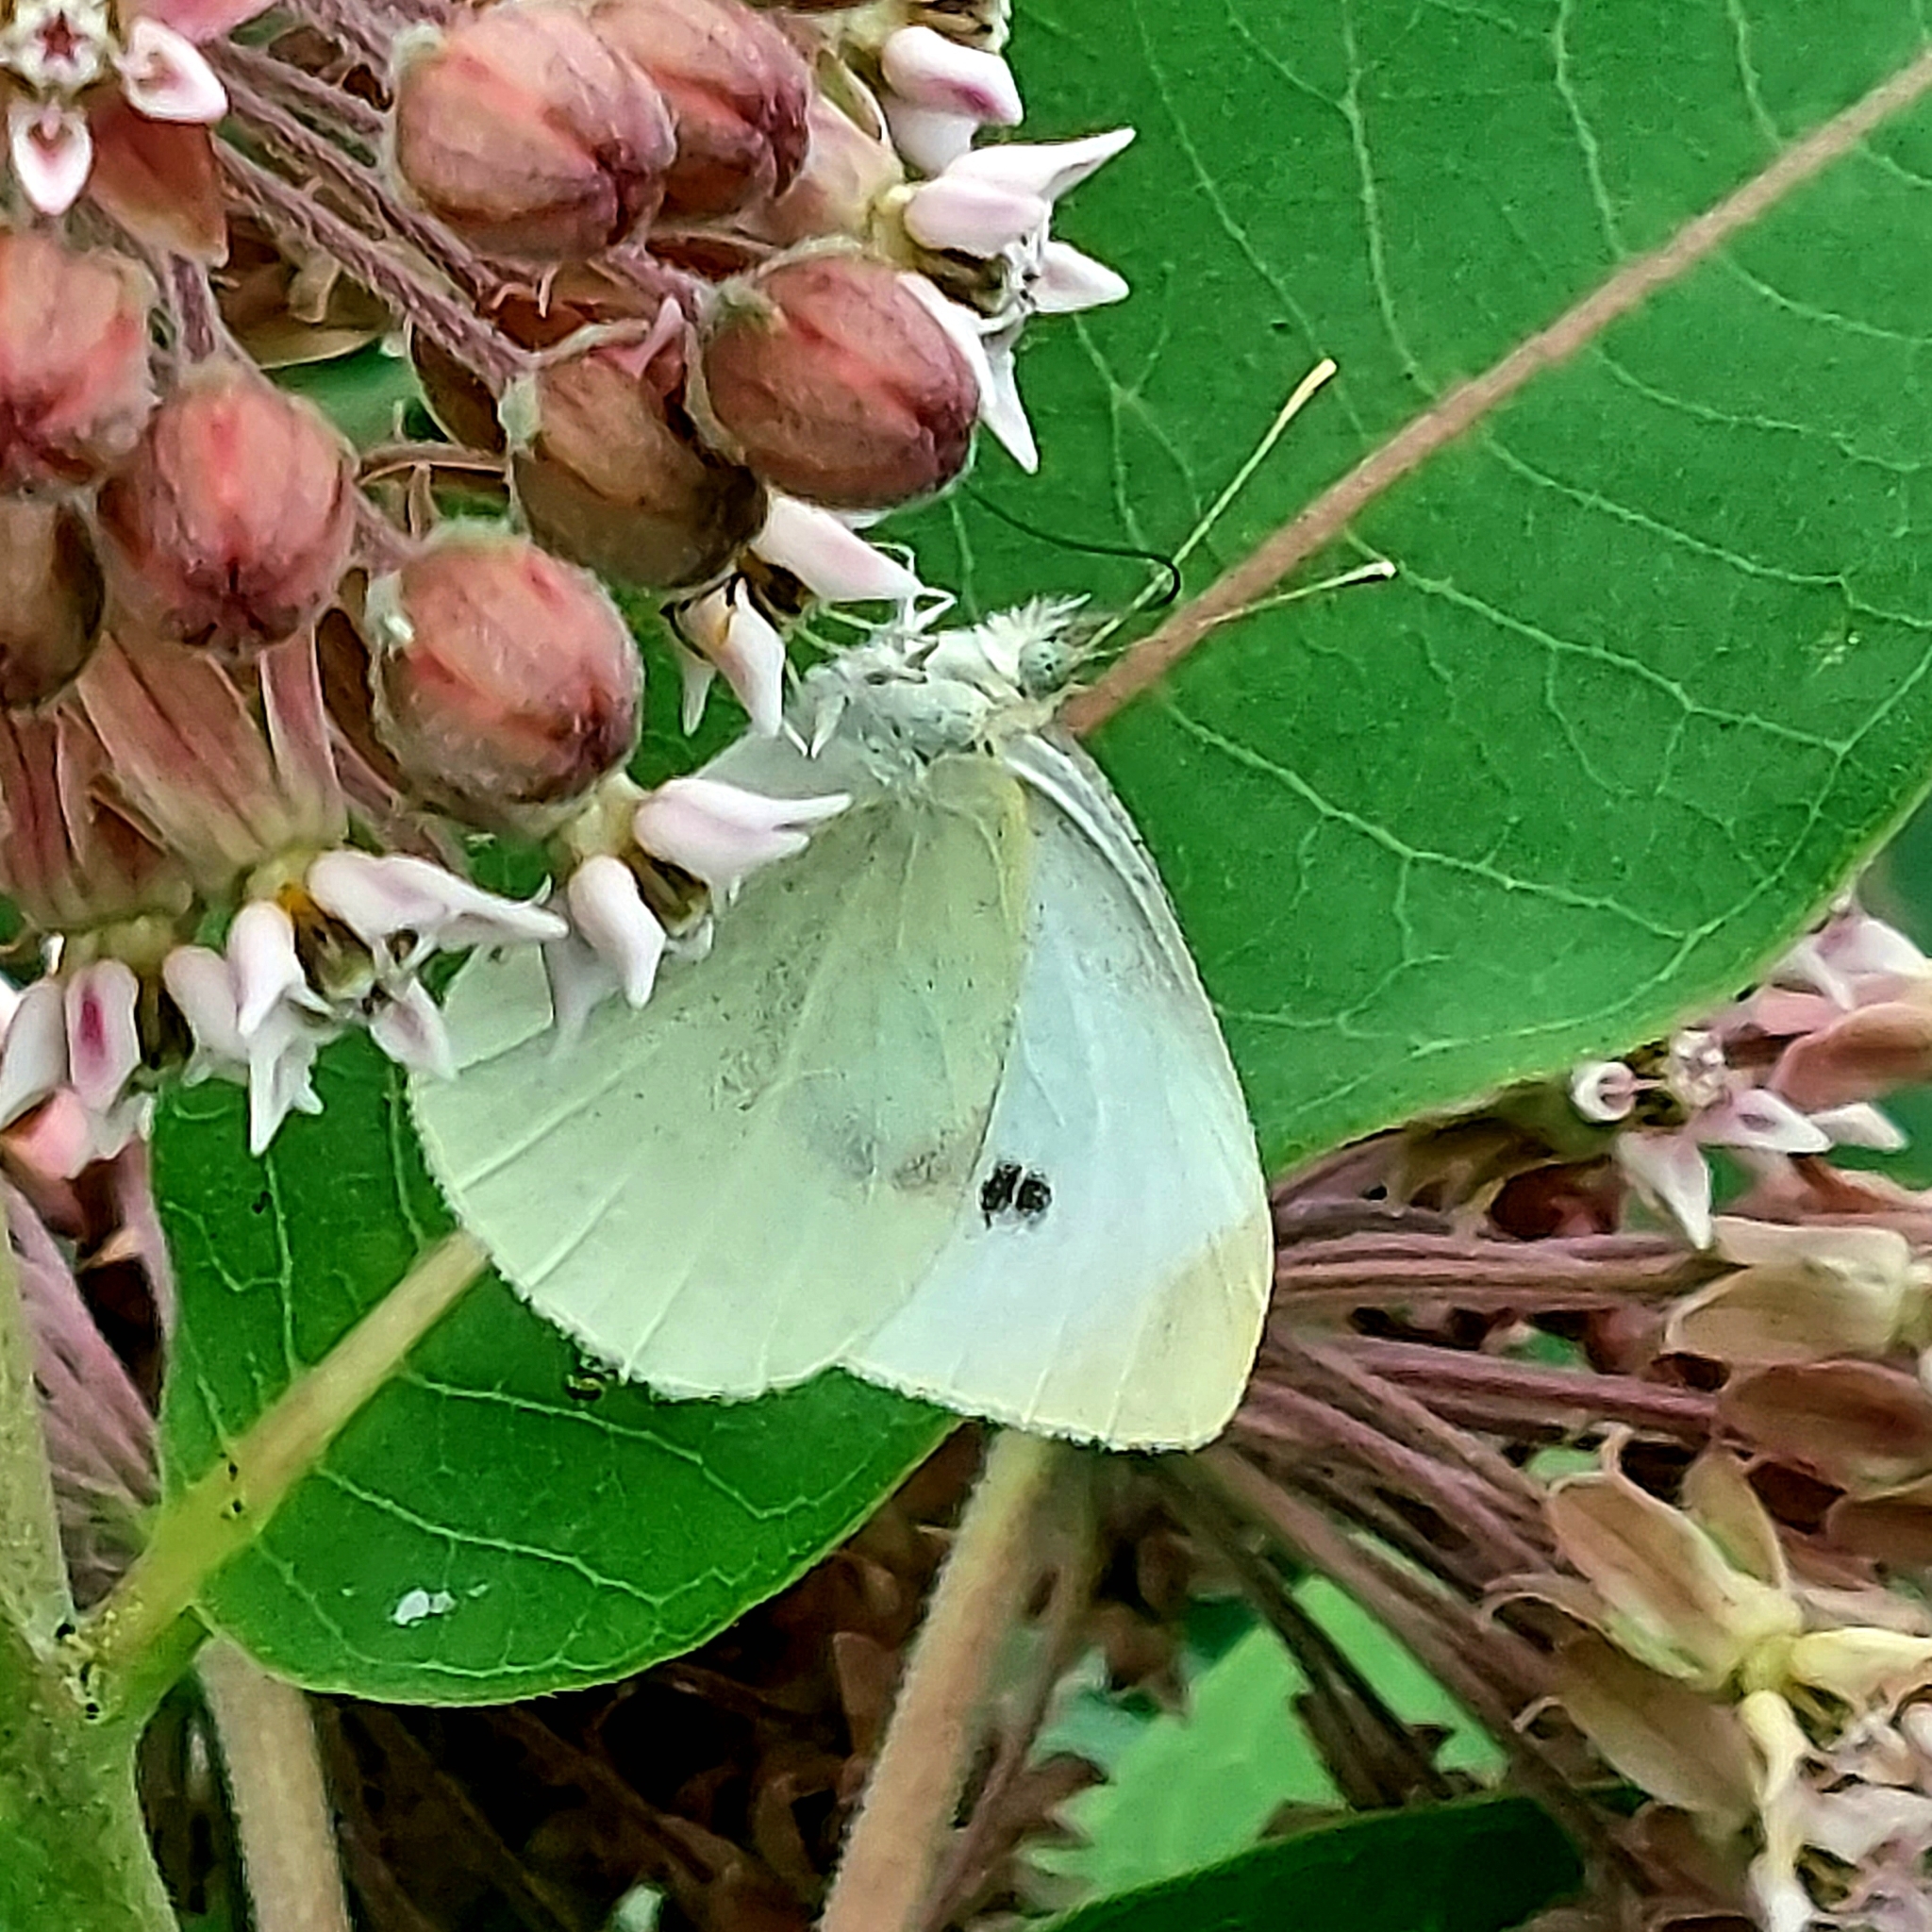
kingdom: Animalia
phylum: Arthropoda
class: Insecta
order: Lepidoptera
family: Pieridae
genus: Pieris
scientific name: Pieris rapae
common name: Small white
